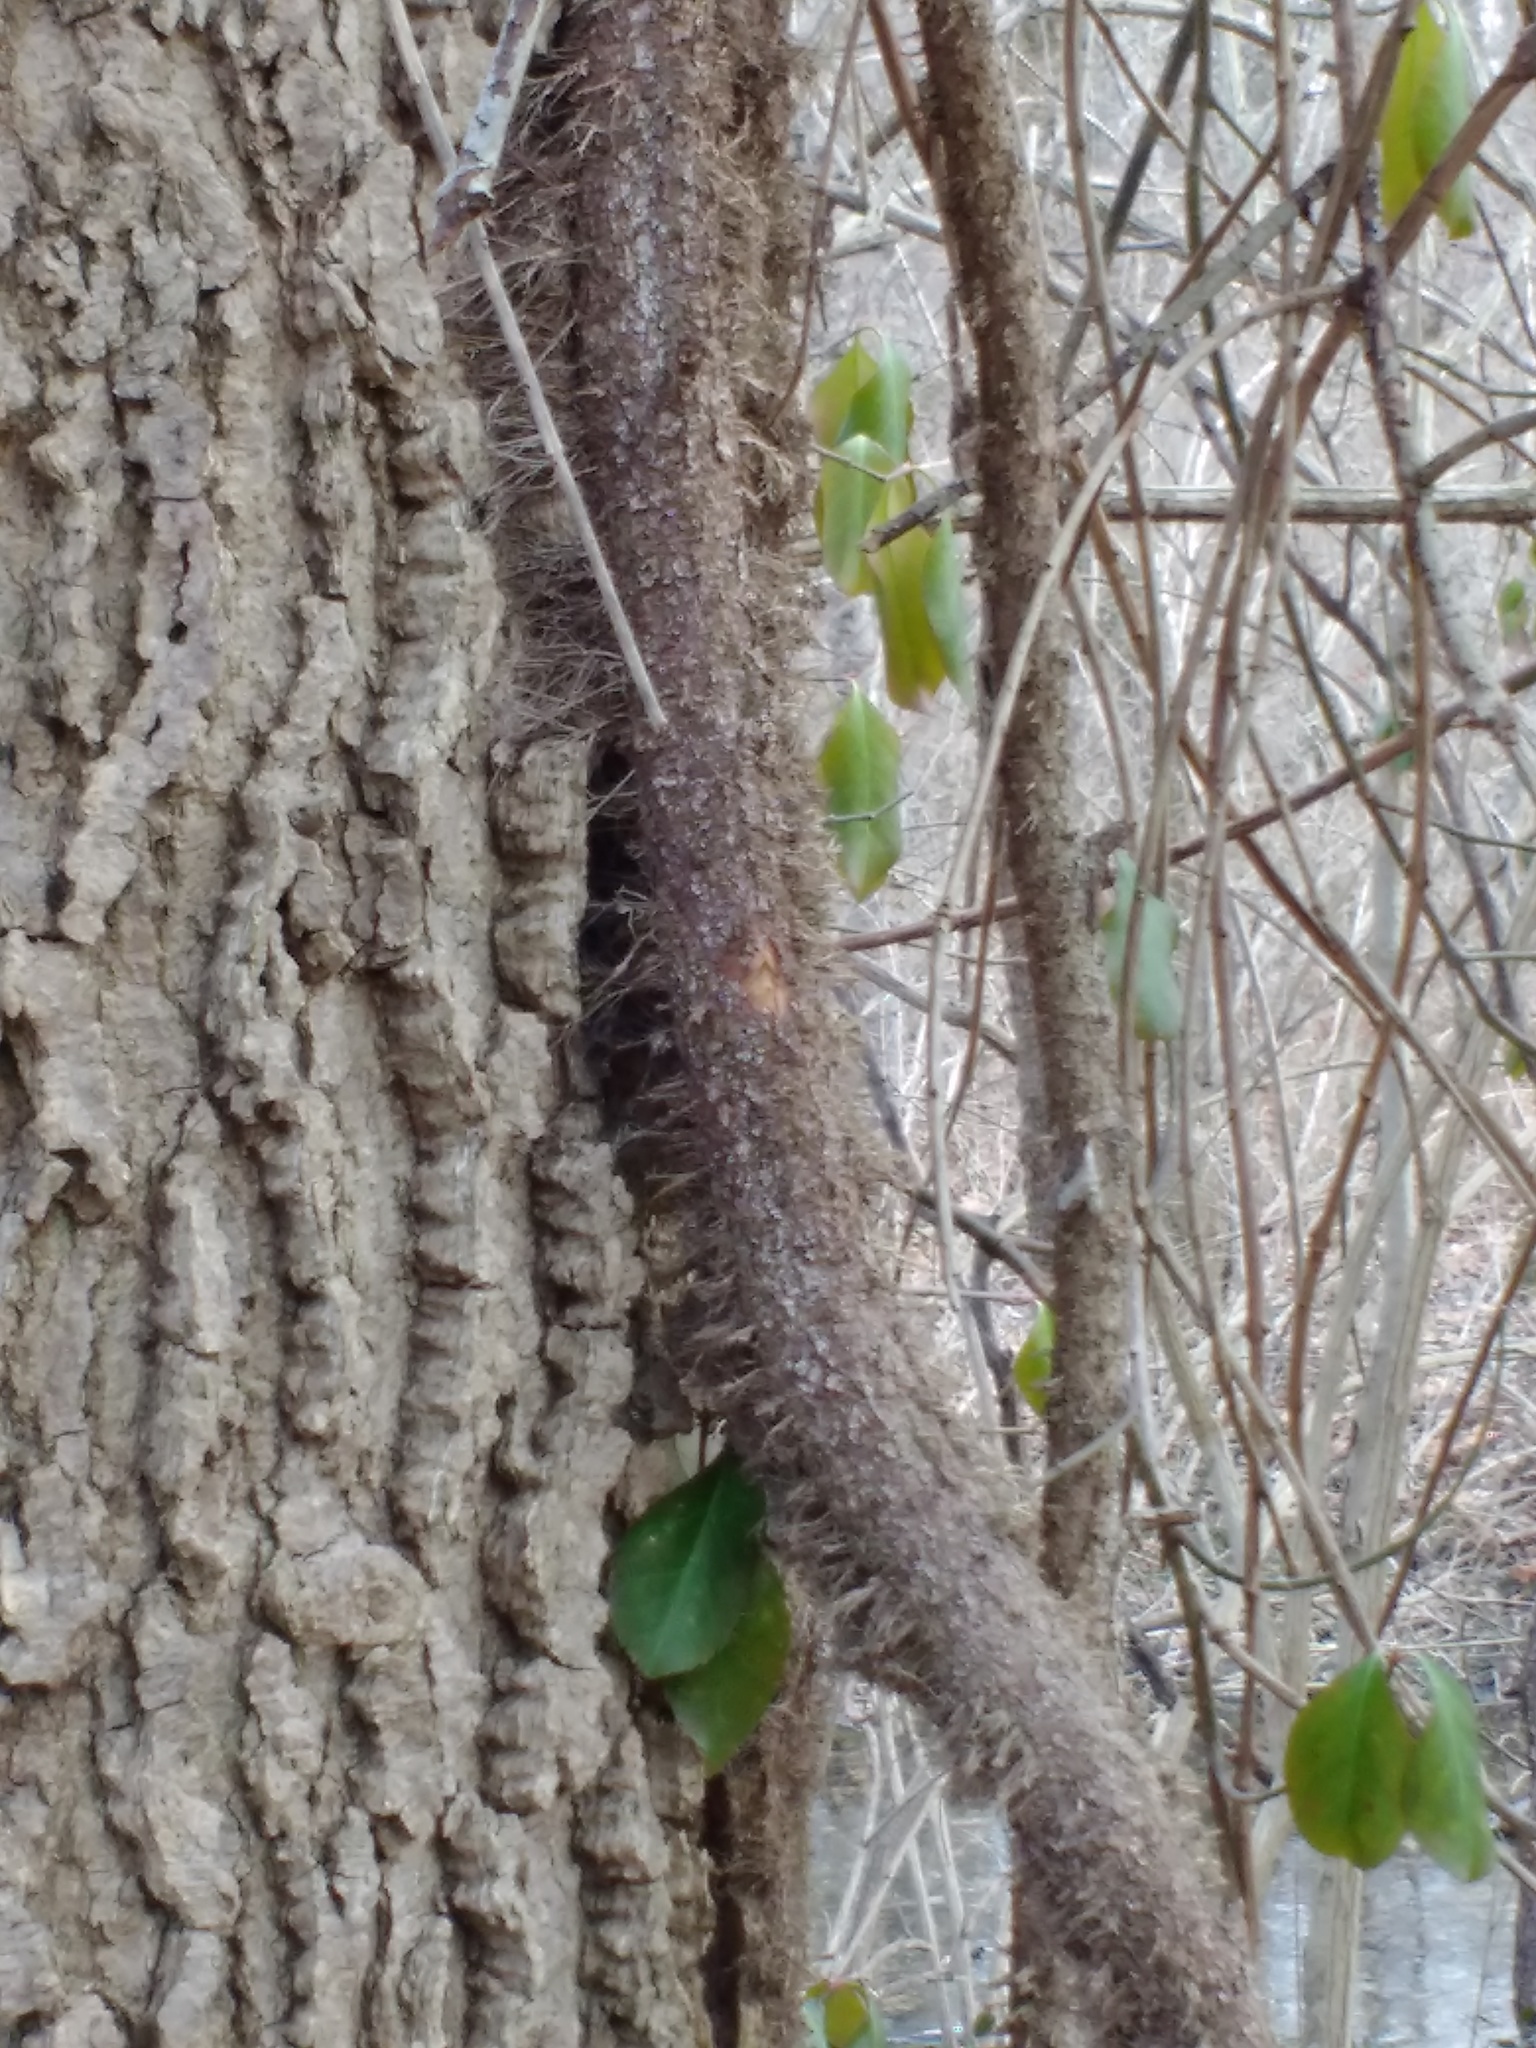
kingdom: Plantae
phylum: Tracheophyta
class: Magnoliopsida
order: Celastrales
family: Celastraceae
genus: Euonymus
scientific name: Euonymus fortunei
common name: Climbing euonymus
